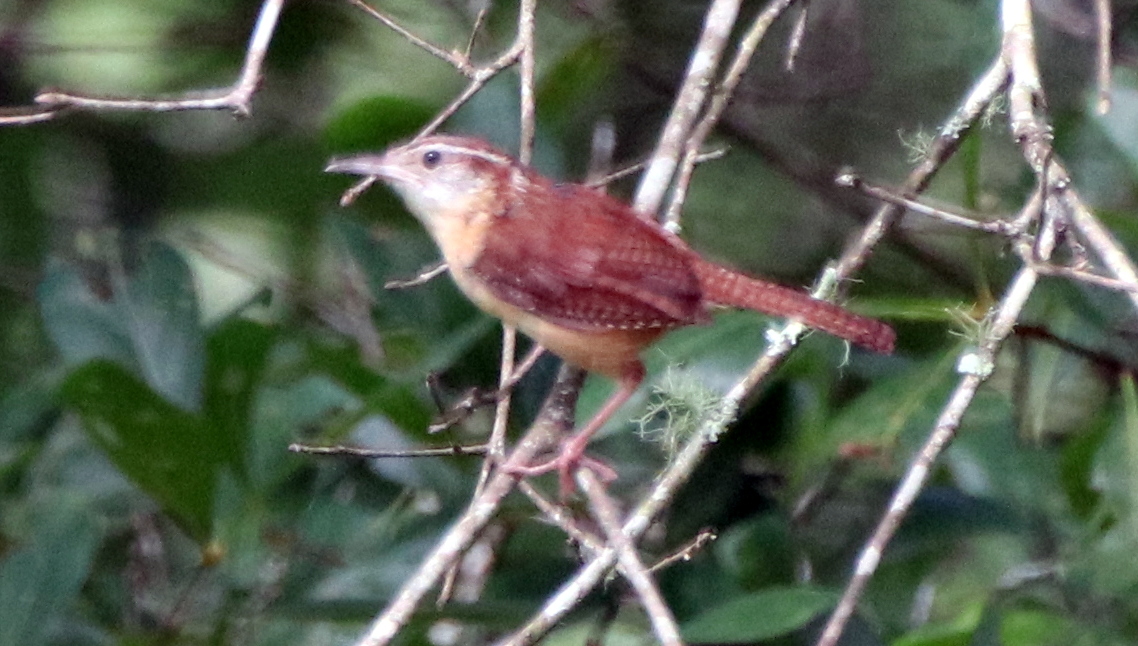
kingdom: Animalia
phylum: Chordata
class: Aves
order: Passeriformes
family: Troglodytidae
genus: Thryothorus
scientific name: Thryothorus ludovicianus
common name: Carolina wren
